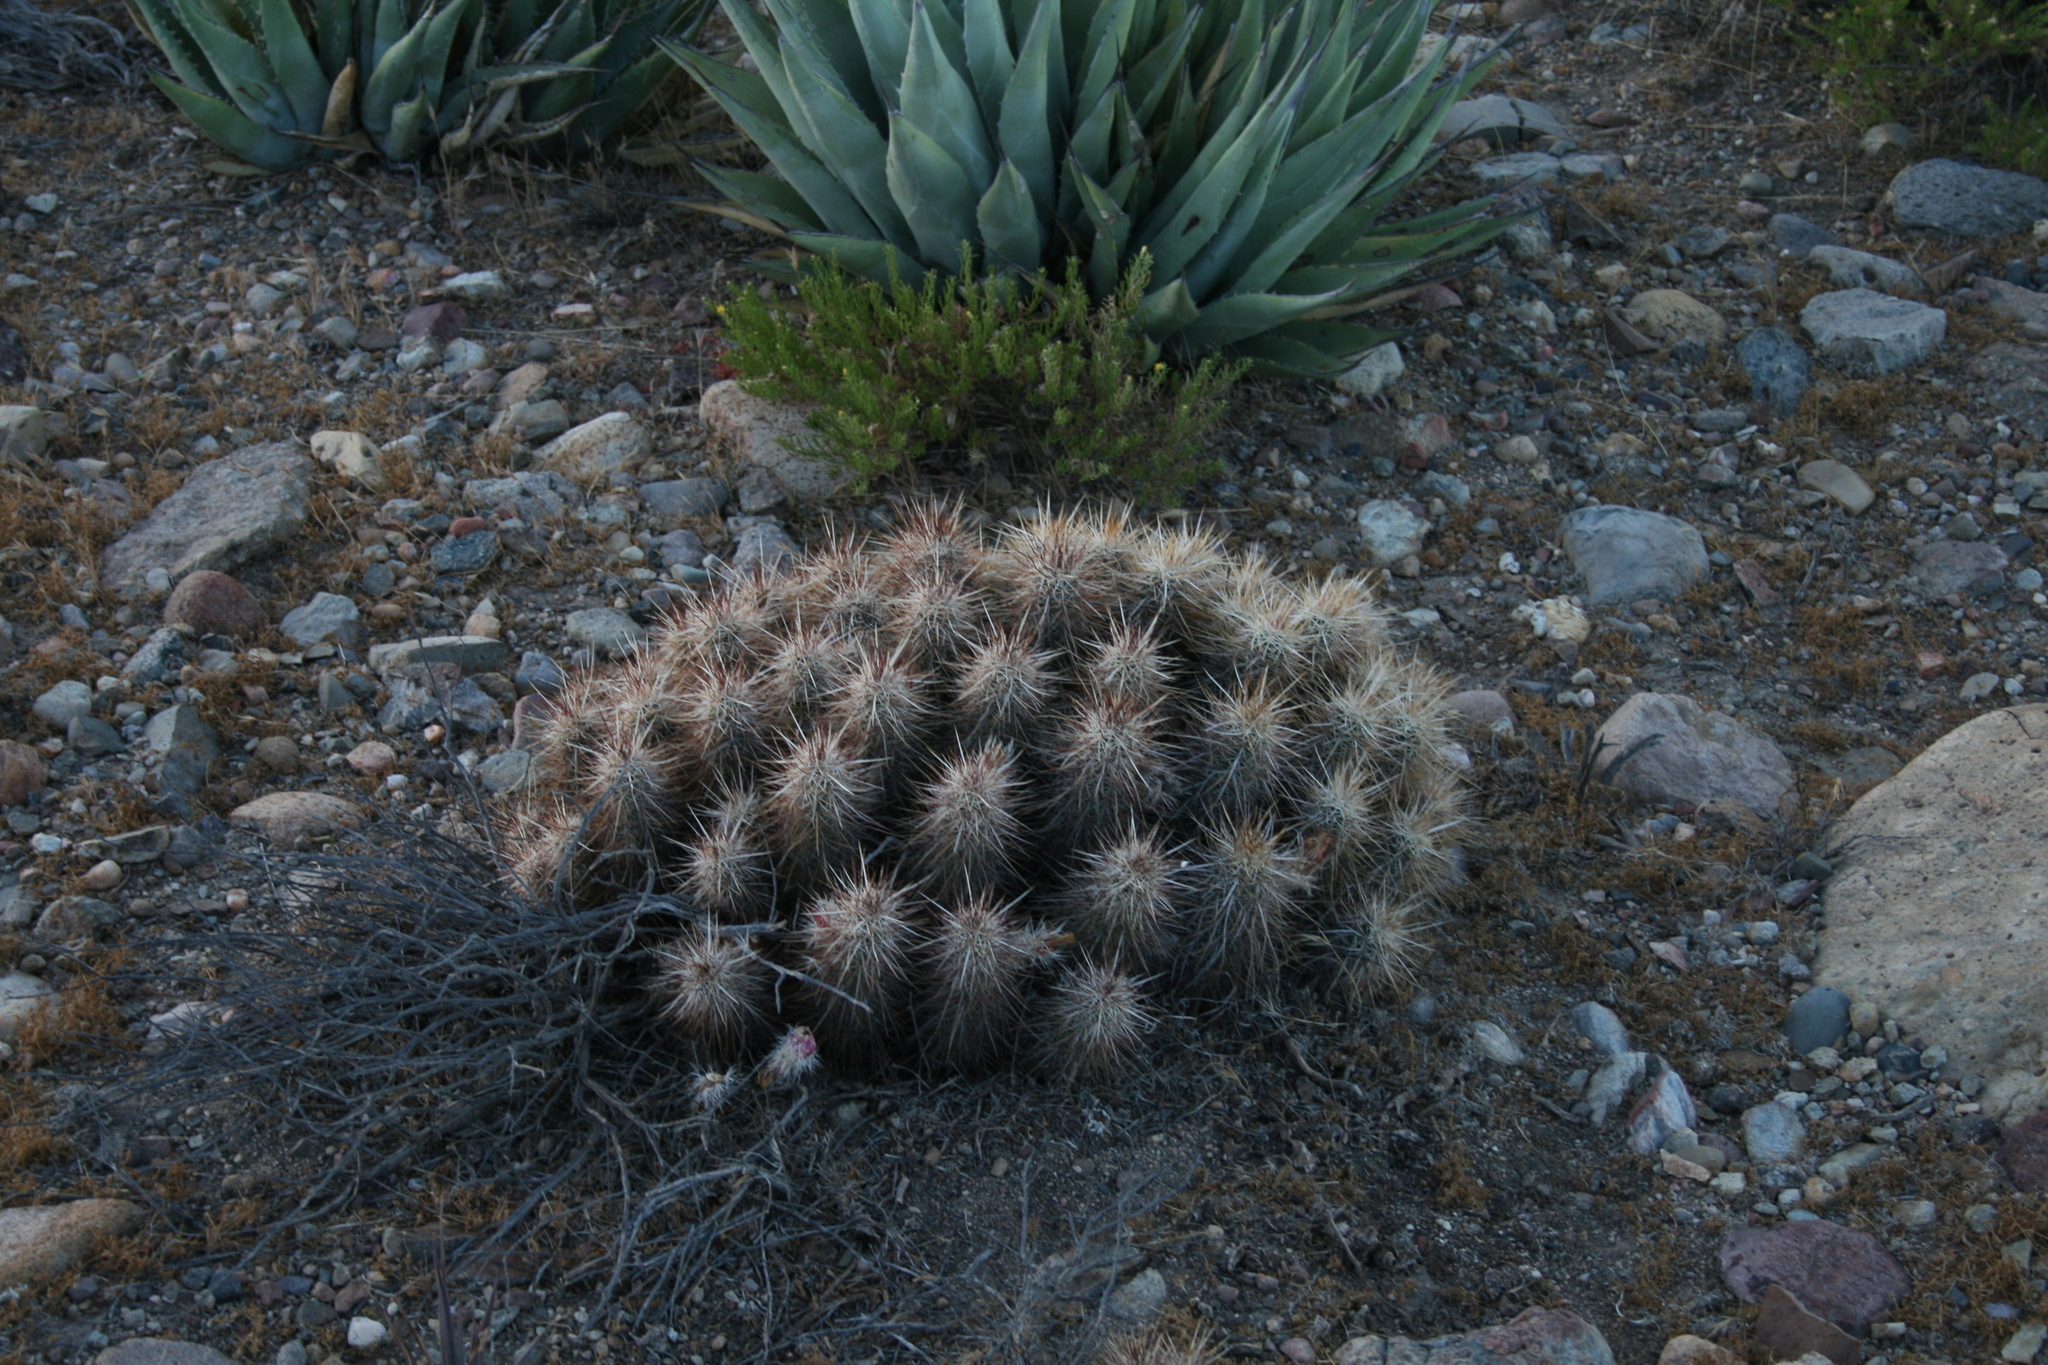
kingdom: Plantae
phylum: Tracheophyta
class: Magnoliopsida
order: Caryophyllales
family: Cactaceae
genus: Echinocereus
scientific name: Echinocereus engelmannii
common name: Engelmann's hedgehog cactus
